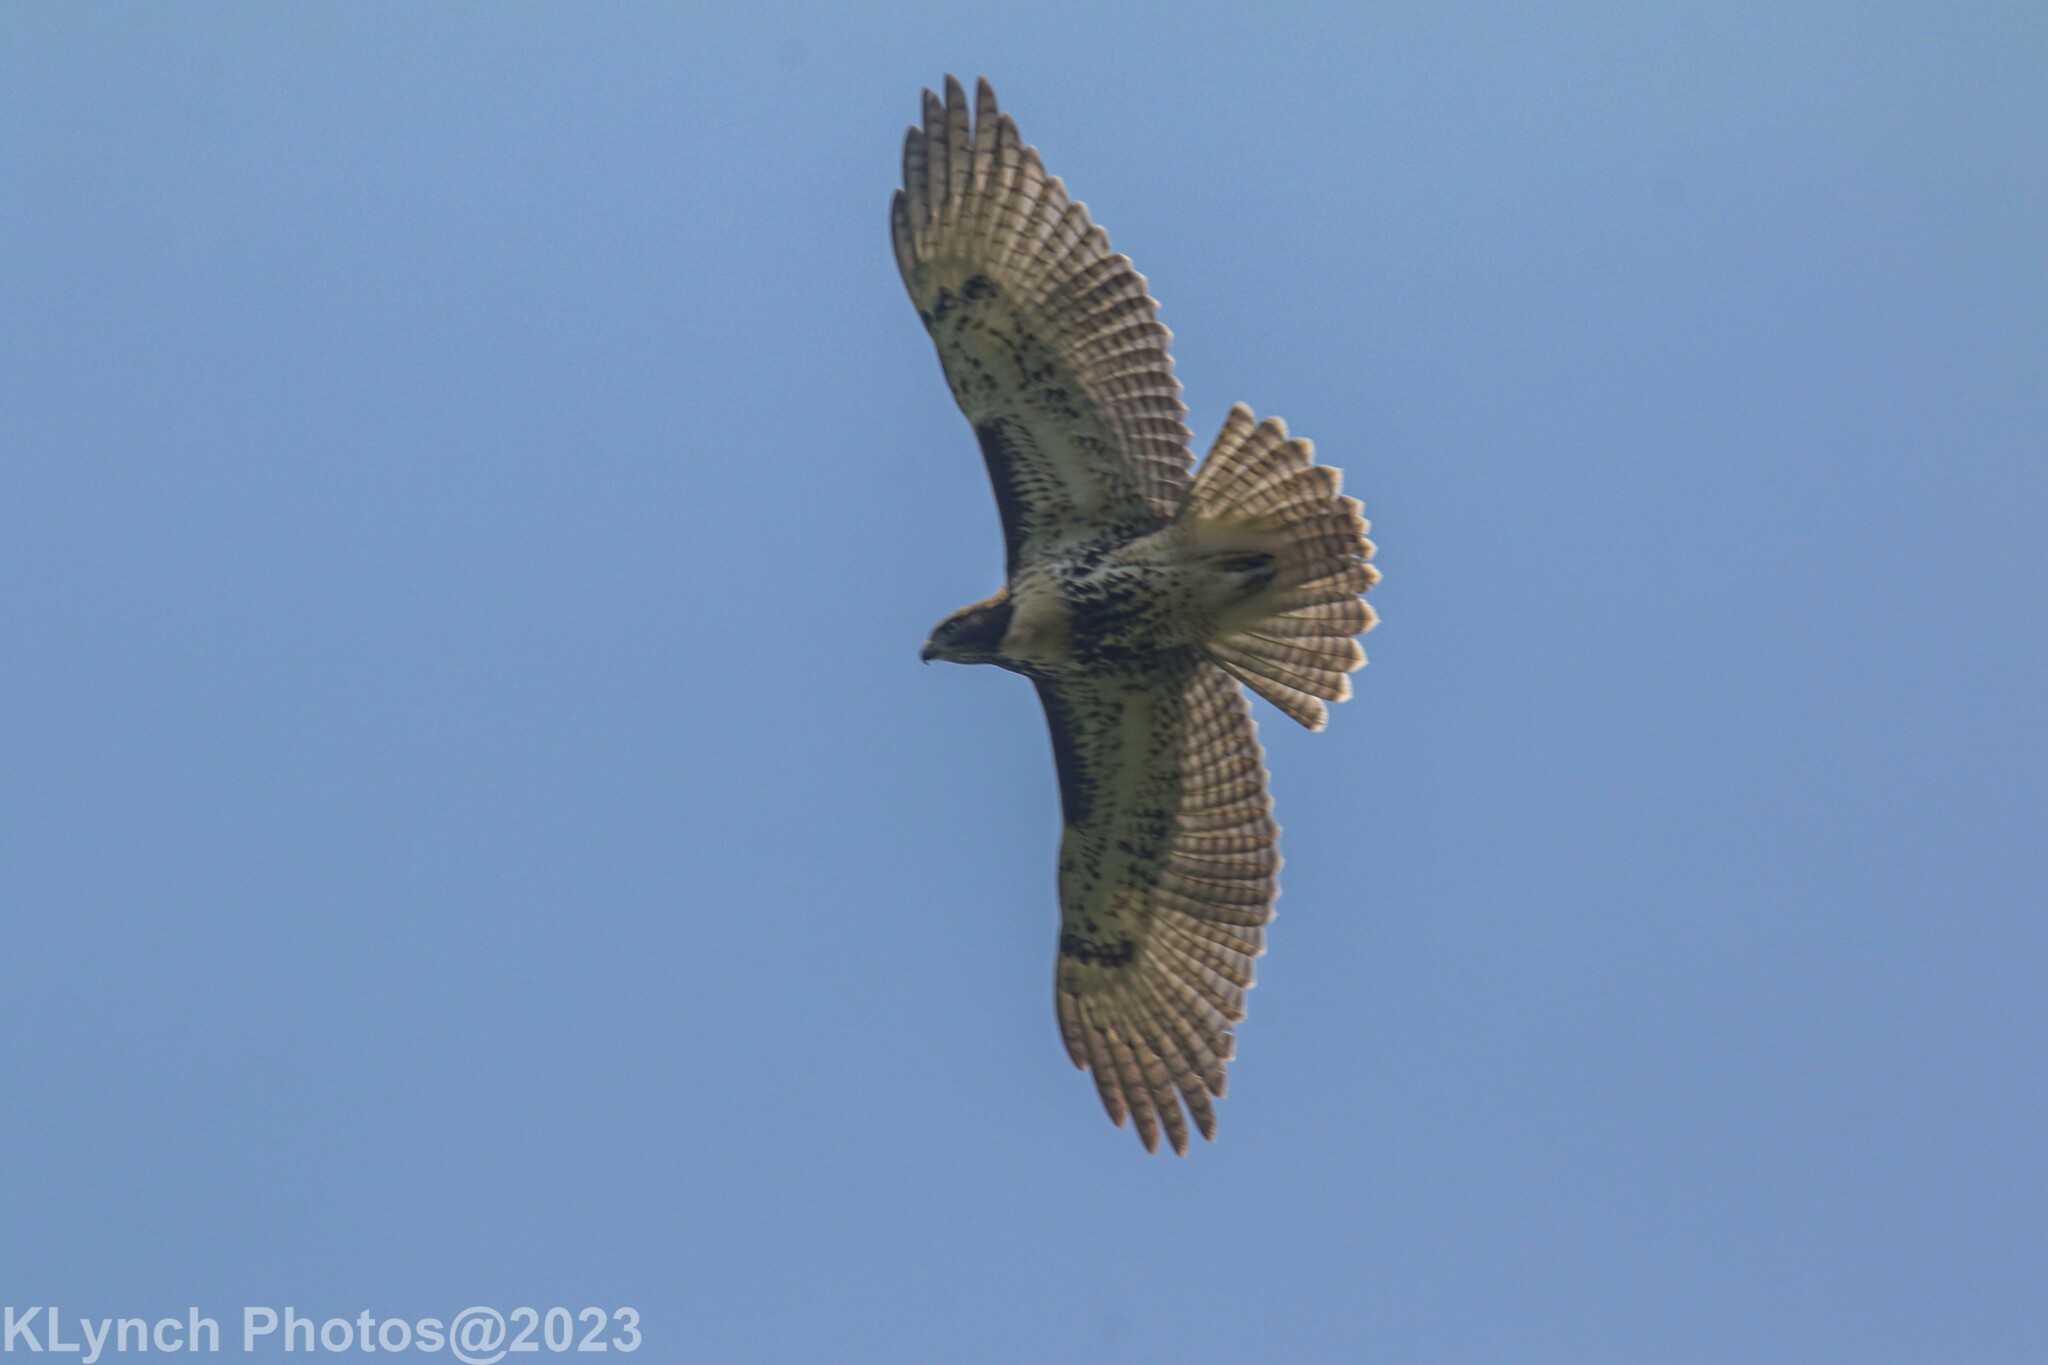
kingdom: Animalia
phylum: Chordata
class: Aves
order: Accipitriformes
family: Accipitridae
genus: Buteo
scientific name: Buteo jamaicensis
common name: Red-tailed hawk
